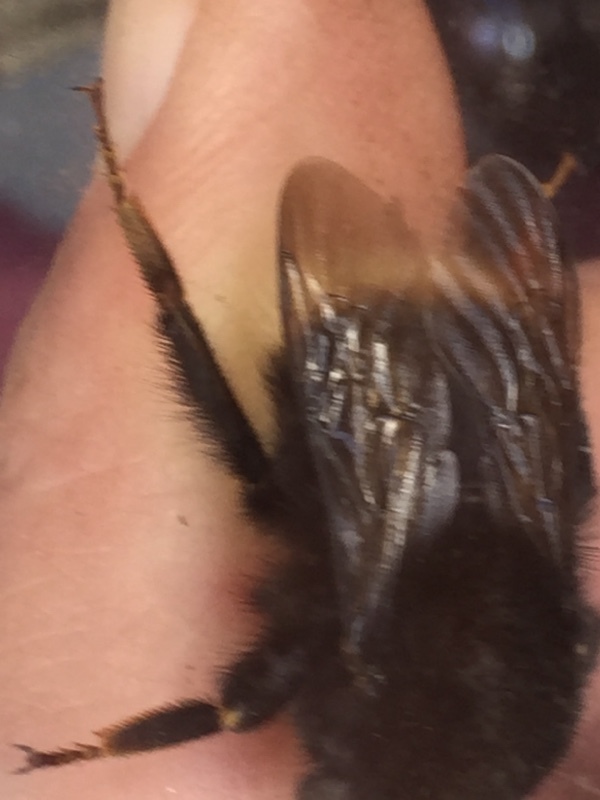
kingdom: Animalia
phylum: Arthropoda
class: Insecta
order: Hymenoptera
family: Apidae
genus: Bombus
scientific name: Bombus terrestris
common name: Buff-tailed bumblebee
